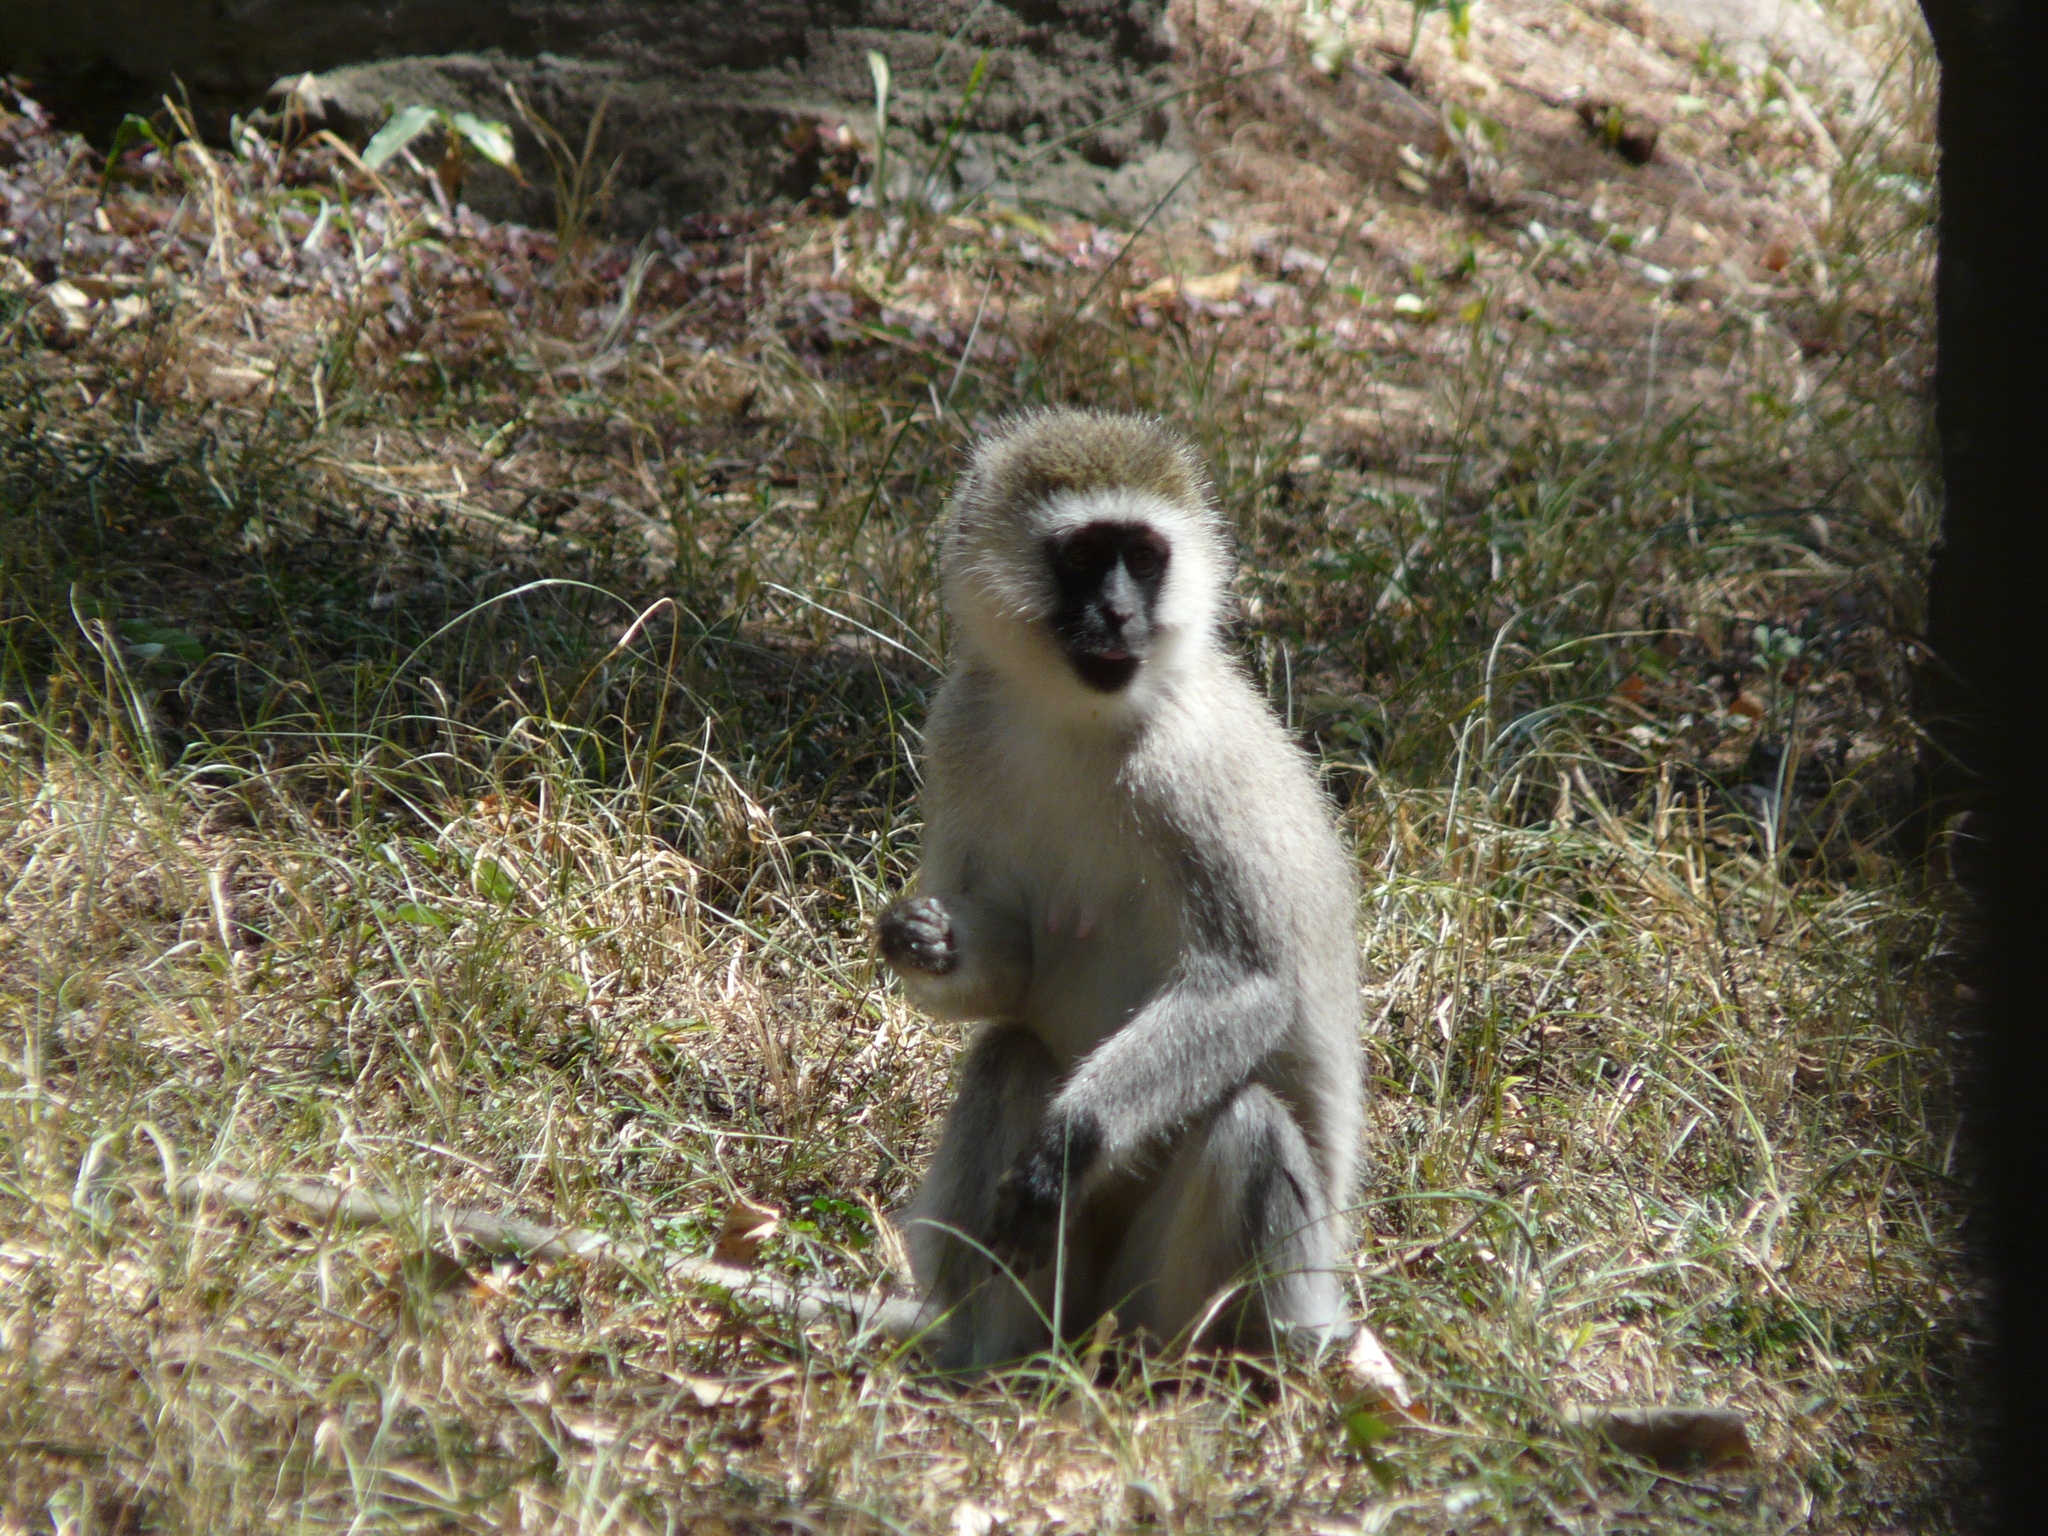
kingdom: Animalia
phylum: Chordata
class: Mammalia
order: Primates
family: Cercopithecidae
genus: Chlorocebus
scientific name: Chlorocebus pygerythrus
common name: Vervet monkey
